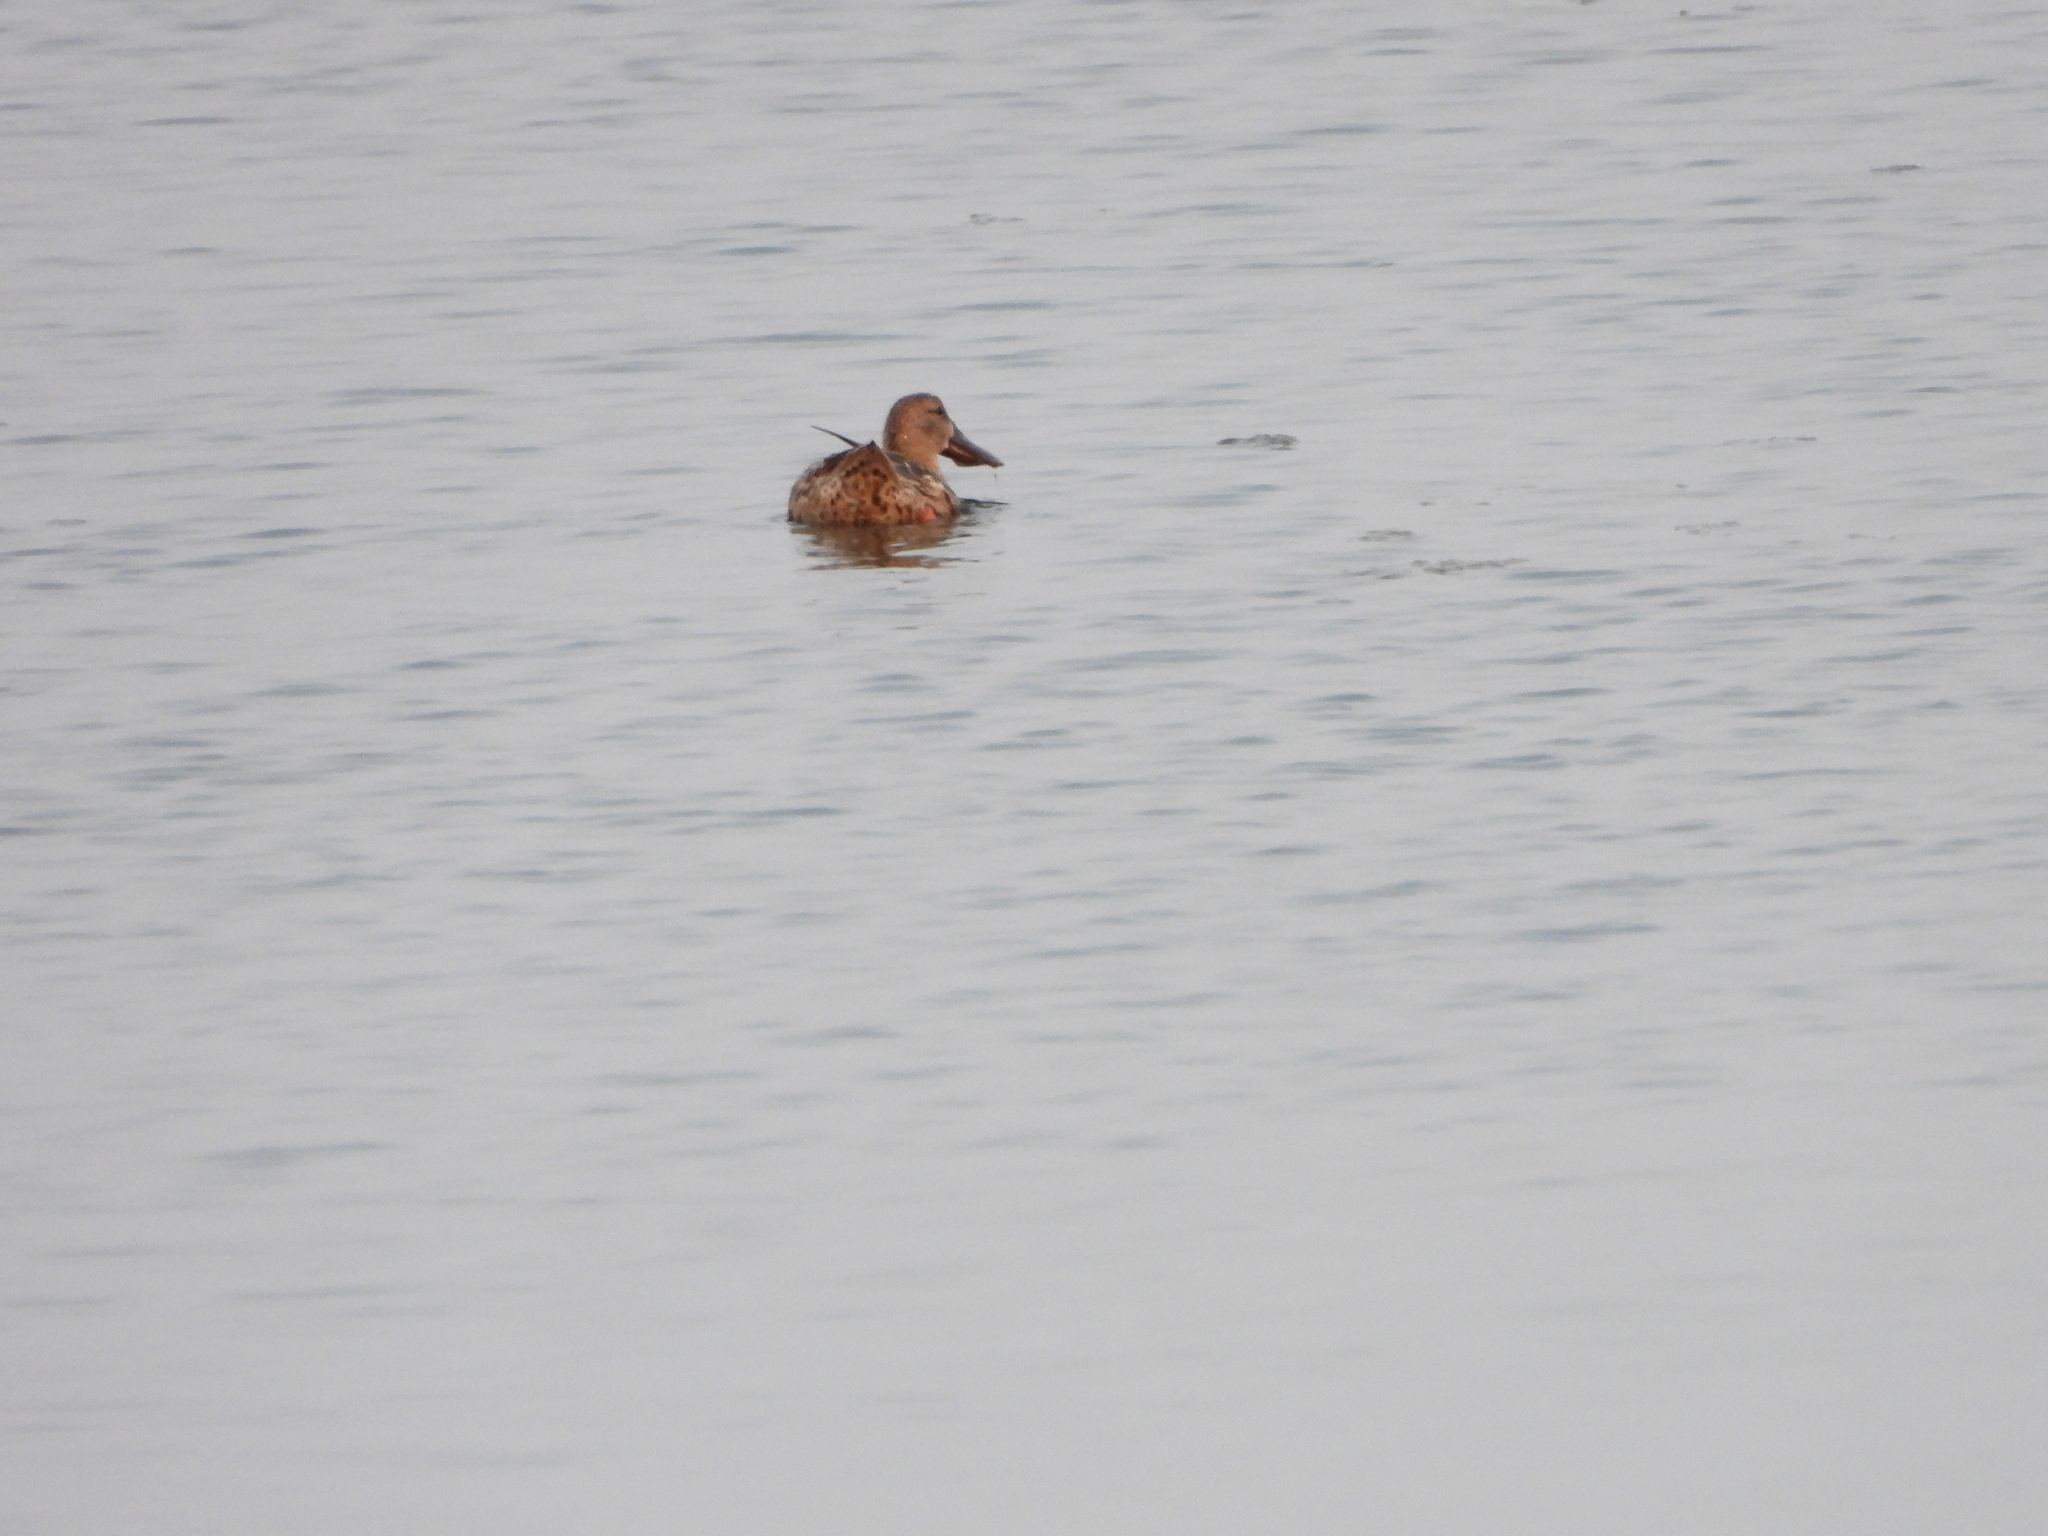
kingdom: Animalia
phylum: Chordata
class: Aves
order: Anseriformes
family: Anatidae
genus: Spatula
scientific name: Spatula clypeata
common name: Northern shoveler
